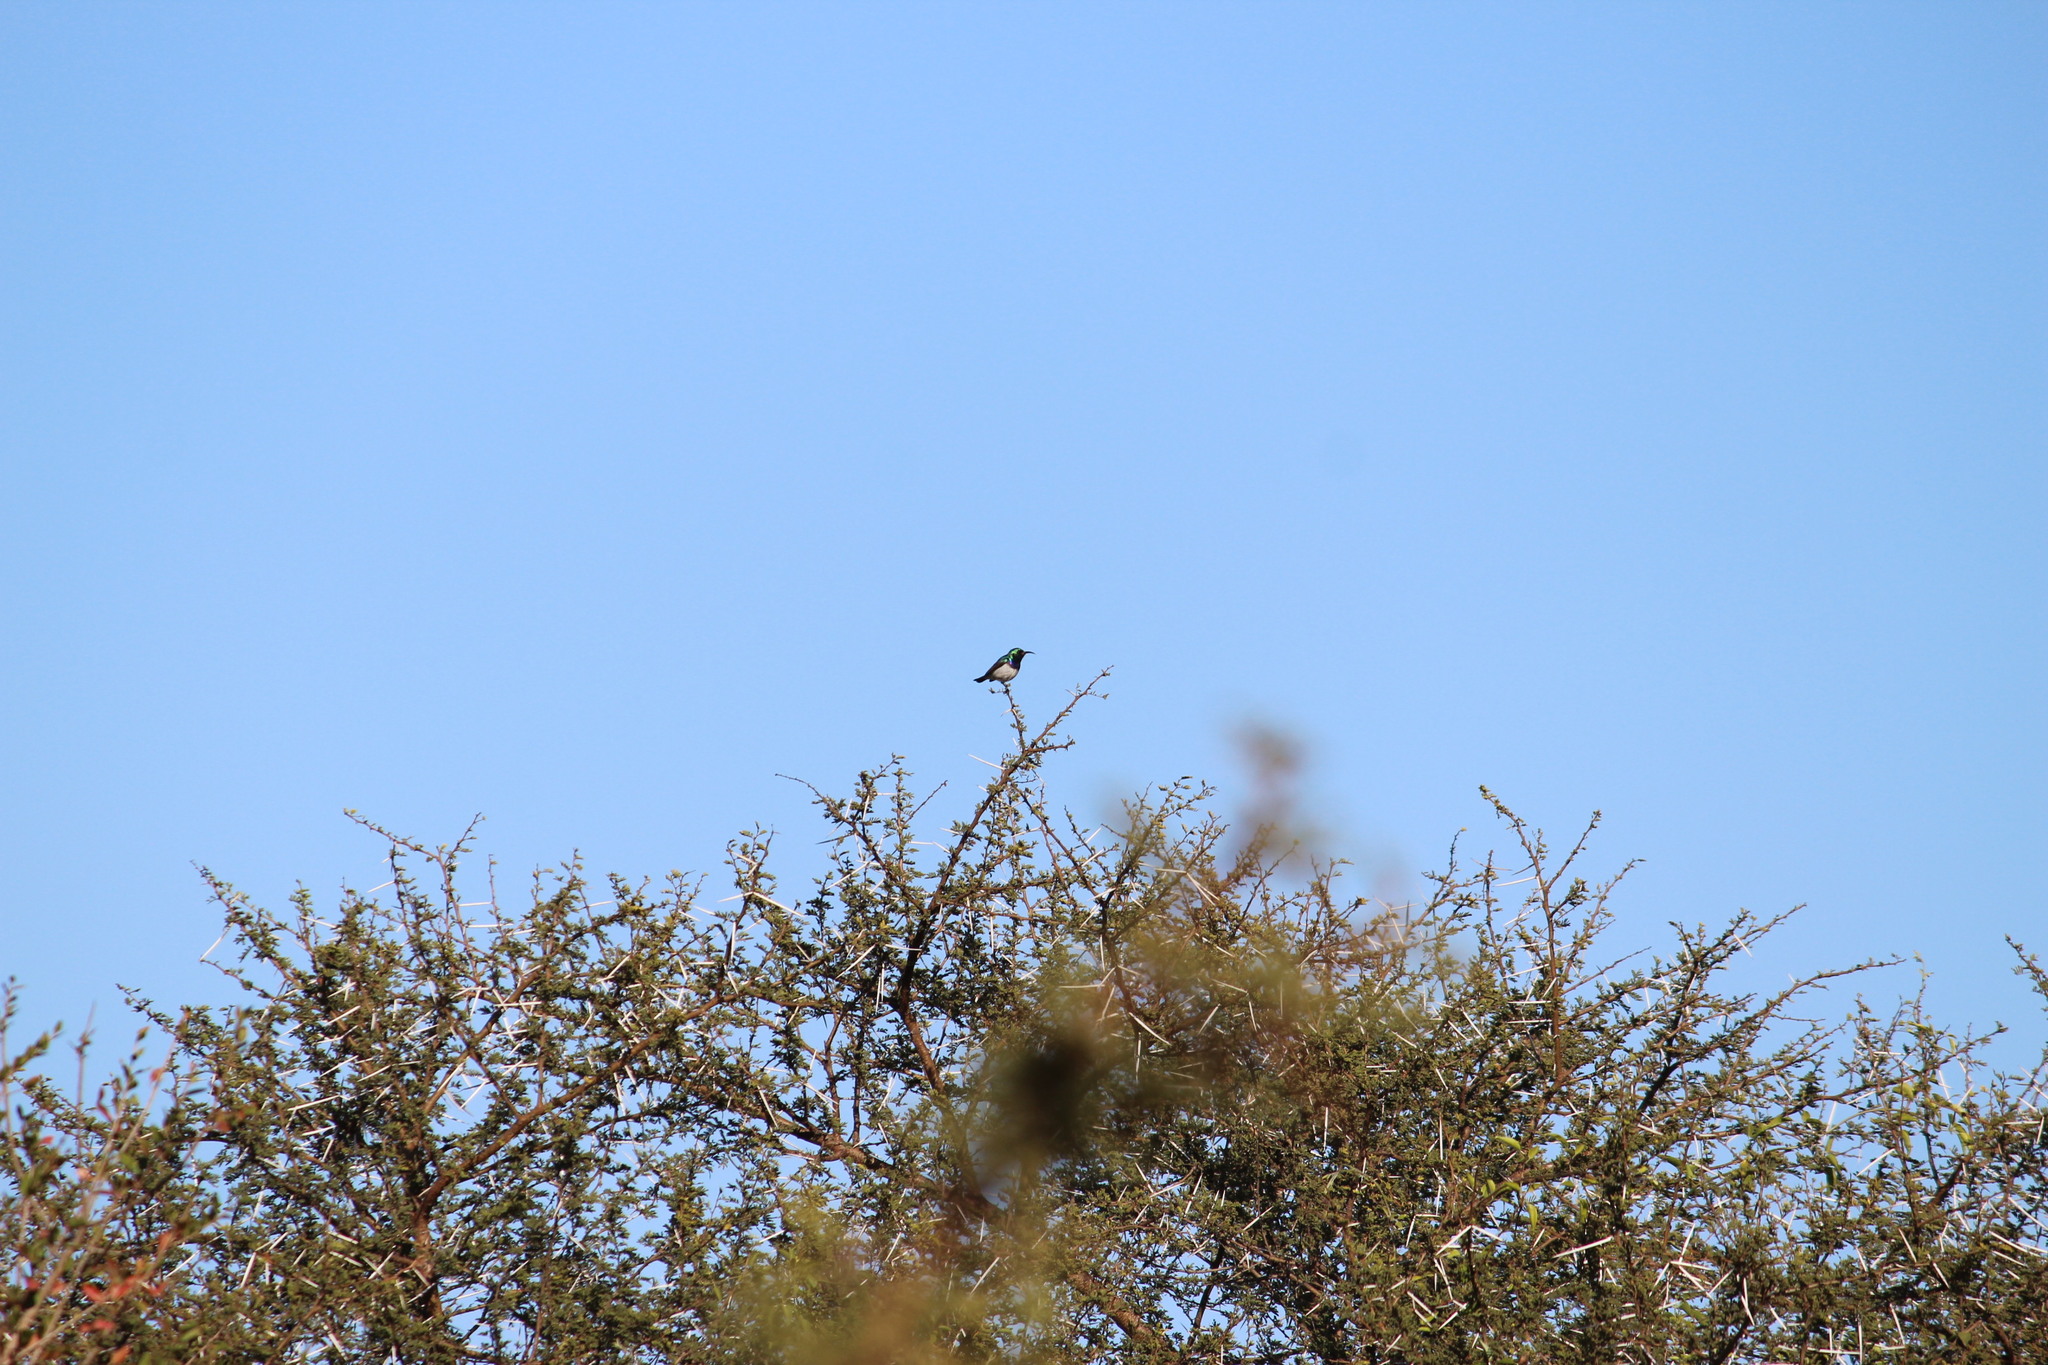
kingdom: Animalia
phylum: Chordata
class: Aves
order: Passeriformes
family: Nectariniidae
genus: Cinnyris
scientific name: Cinnyris talatala
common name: White-bellied sunbird
